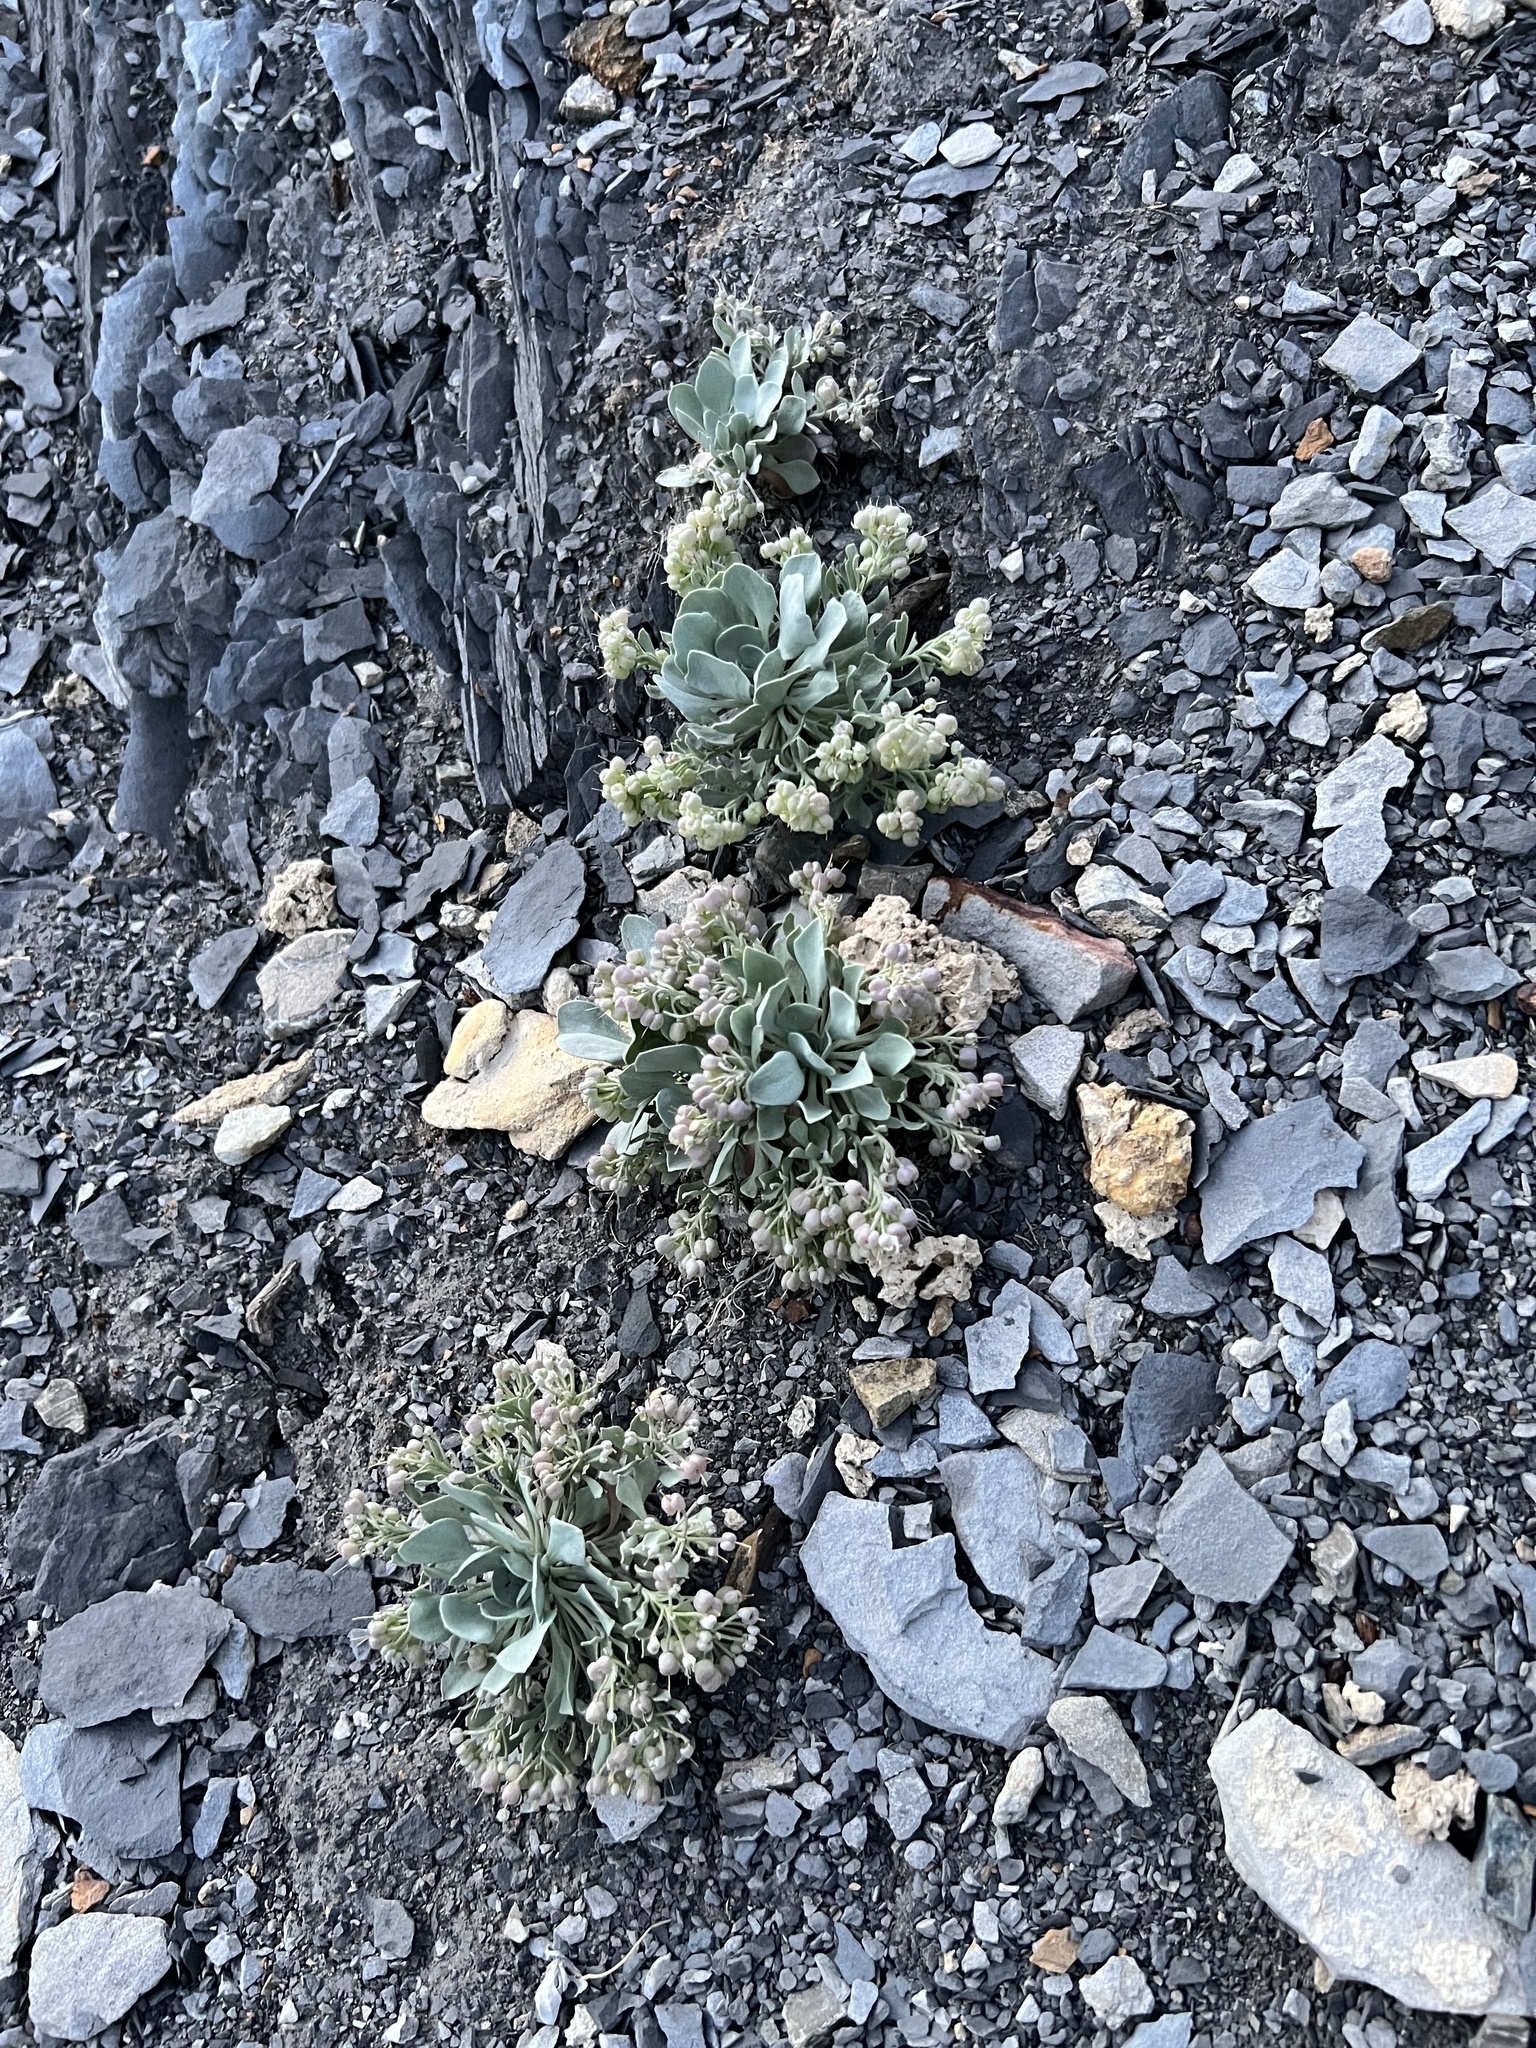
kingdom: Plantae
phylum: Tracheophyta
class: Magnoliopsida
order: Brassicales
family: Brassicaceae
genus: Physaria
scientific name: Physaria bellii
